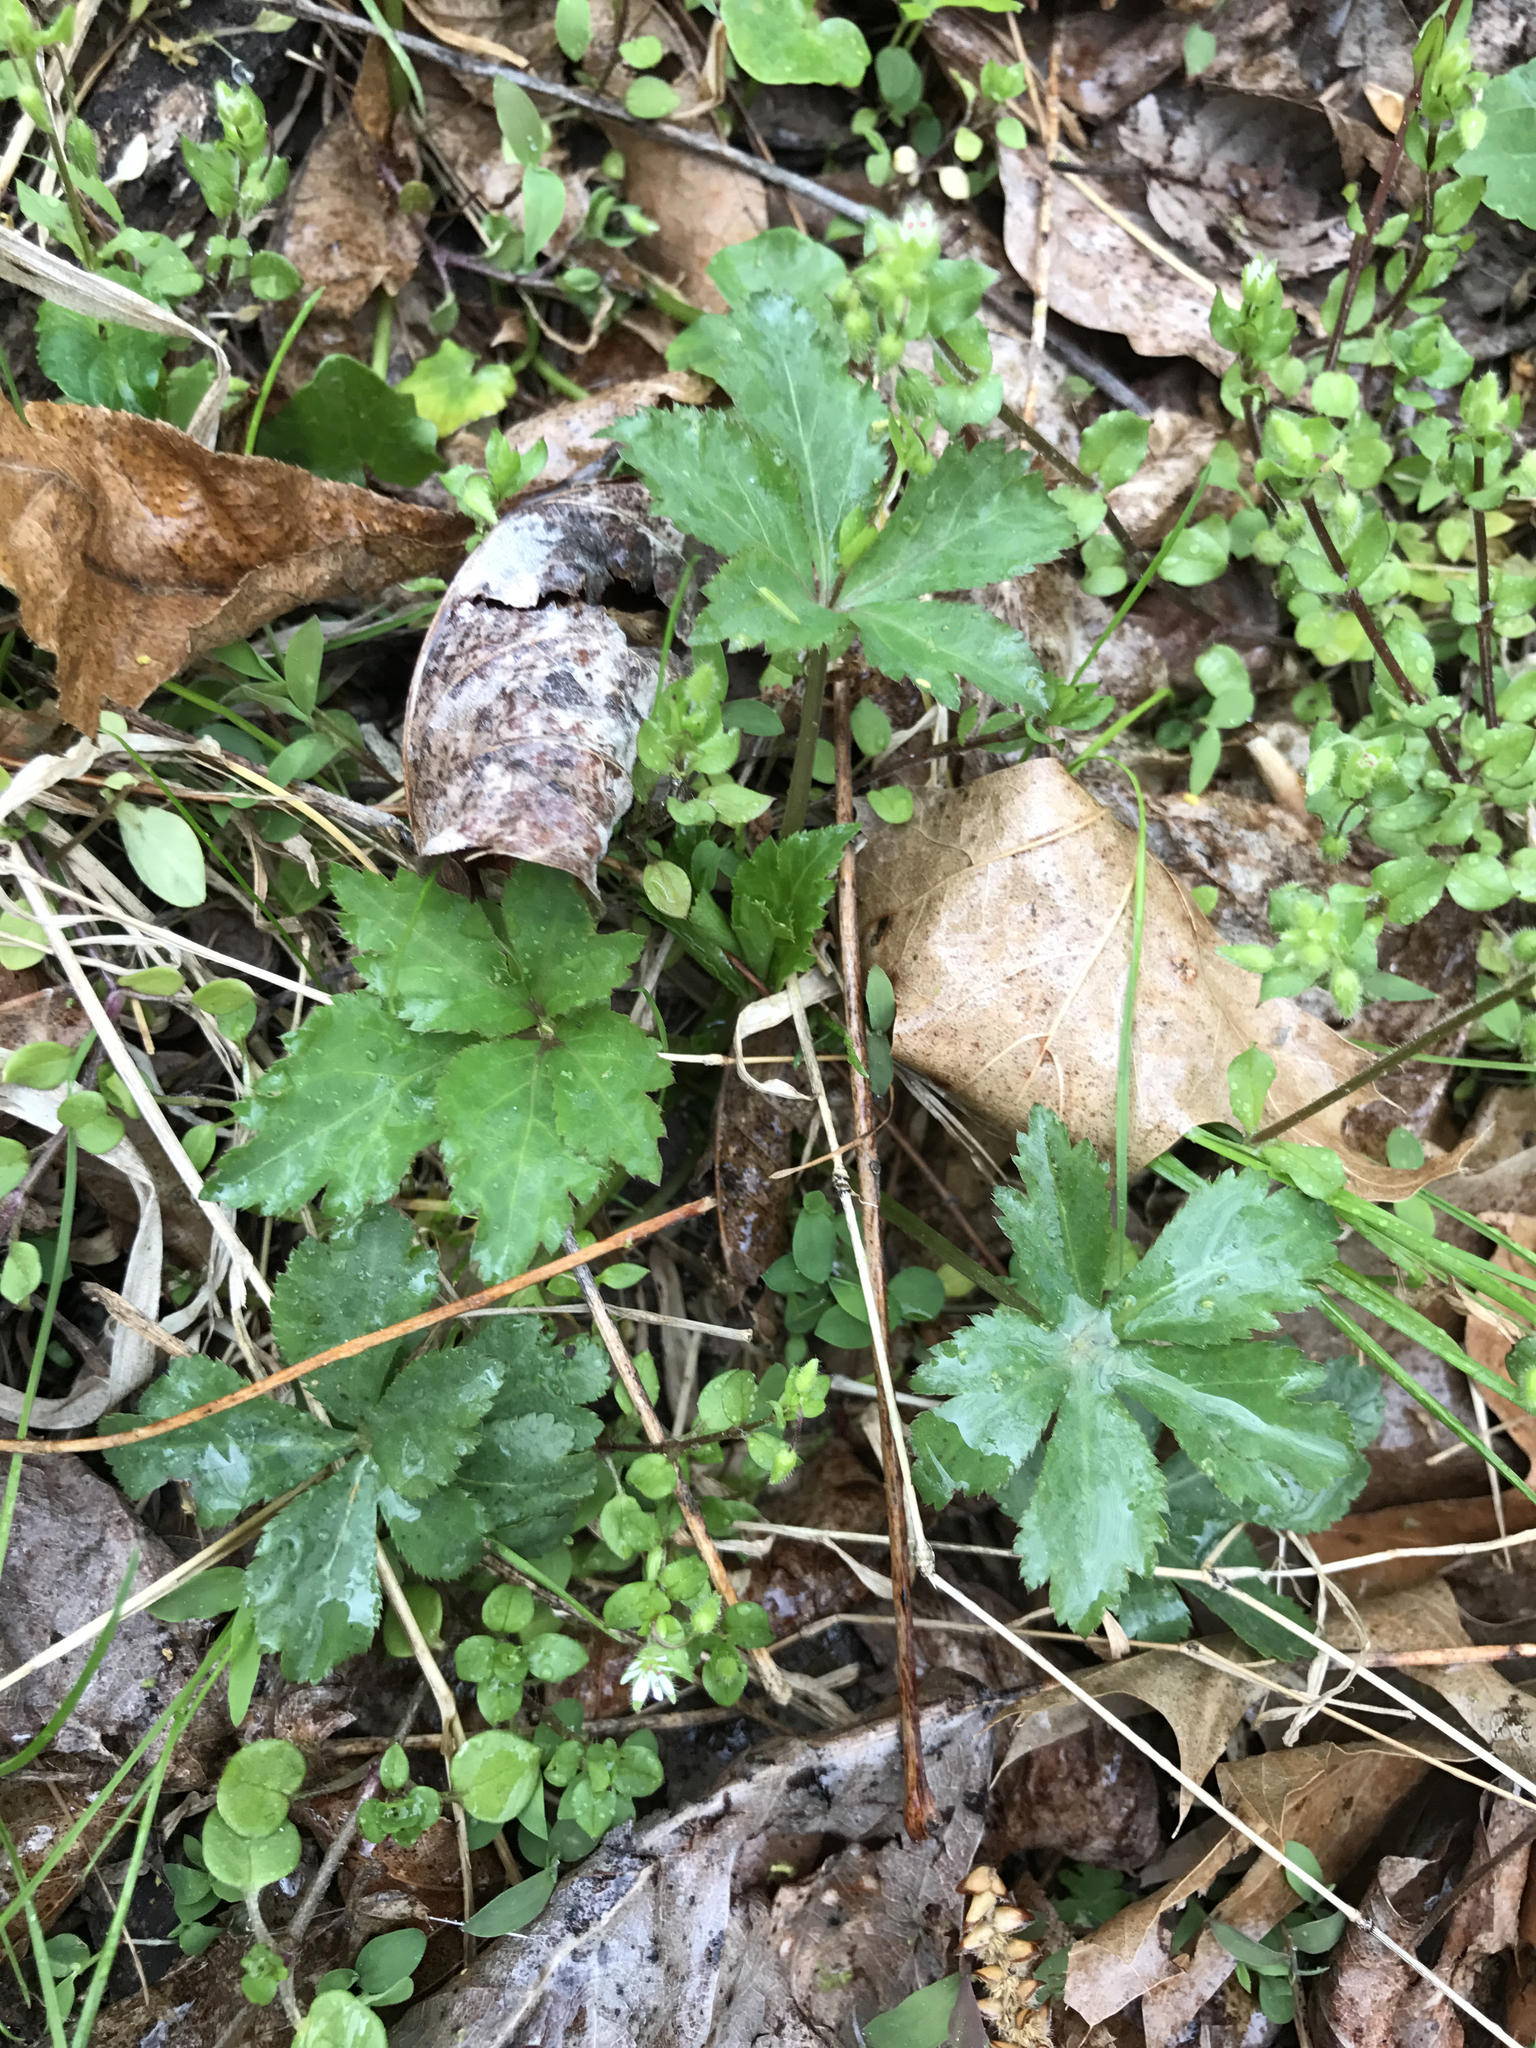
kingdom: Plantae
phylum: Tracheophyta
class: Magnoliopsida
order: Apiales
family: Apiaceae
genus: Sanicula
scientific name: Sanicula canadensis
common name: Canada sanicle
